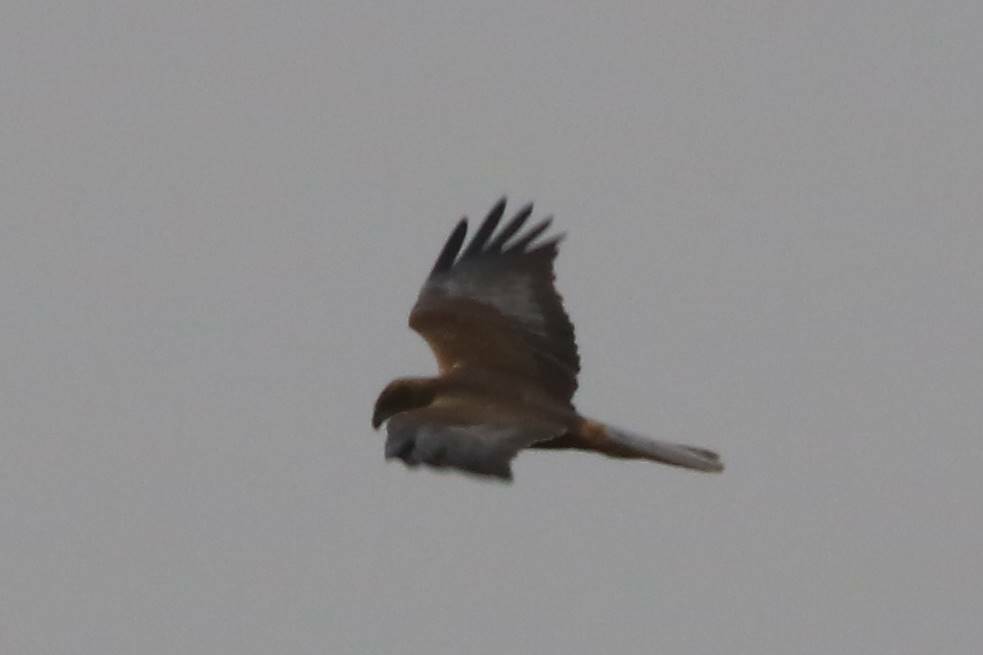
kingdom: Animalia
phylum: Chordata
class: Aves
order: Accipitriformes
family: Accipitridae
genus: Circus
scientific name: Circus aeruginosus
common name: Western marsh harrier
